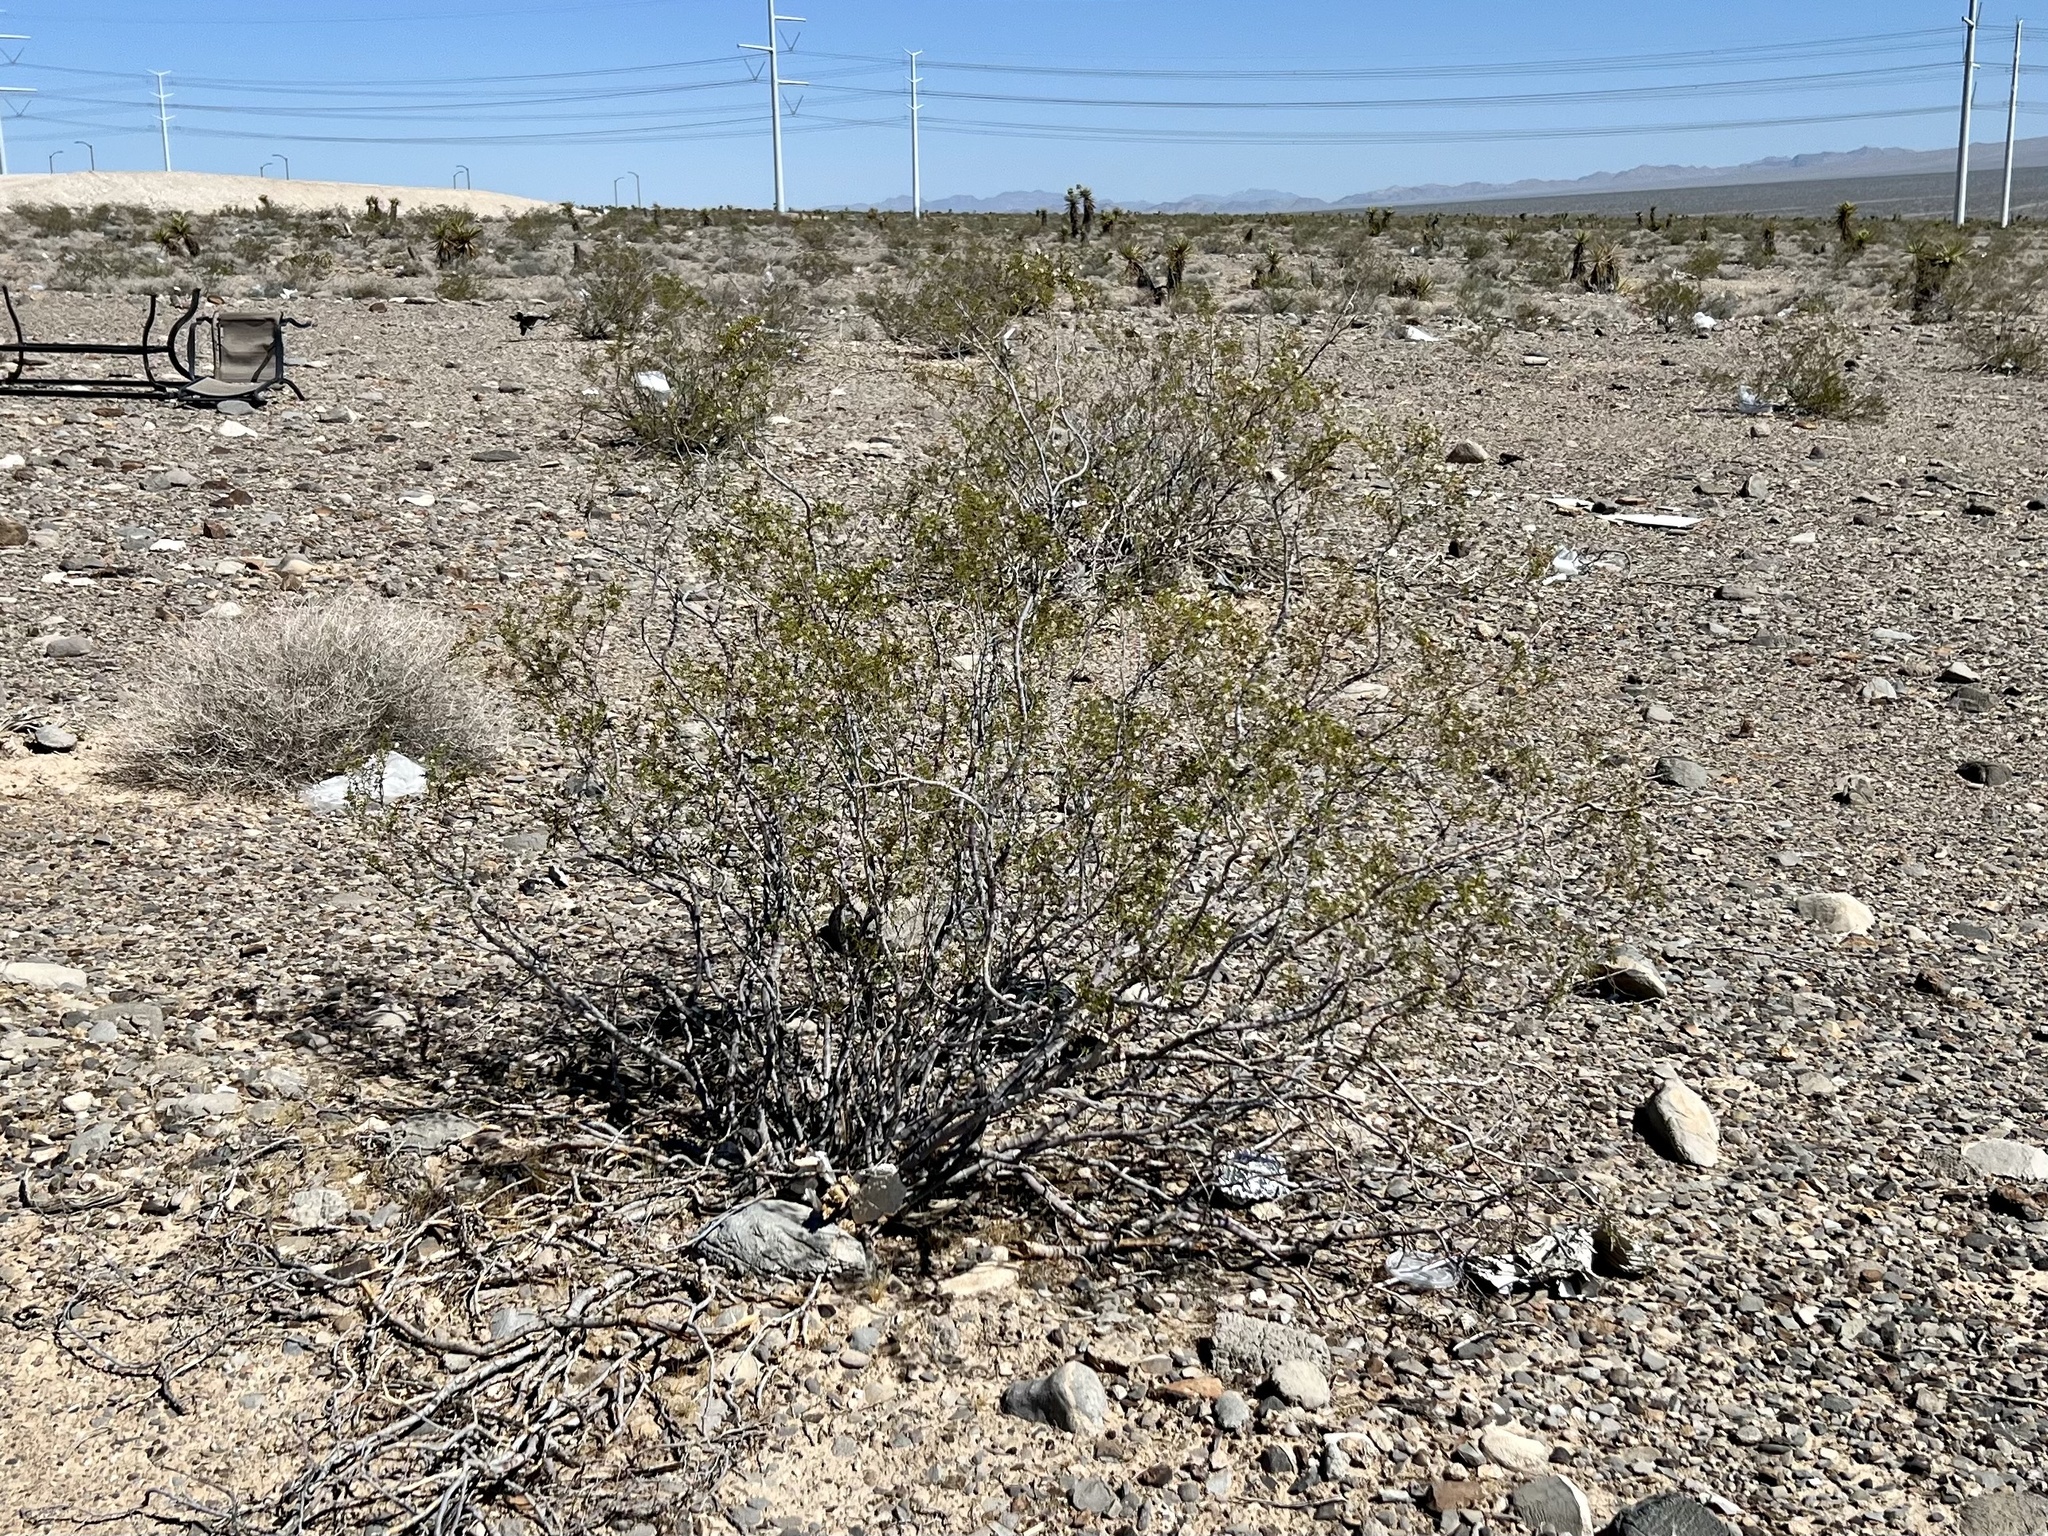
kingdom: Plantae
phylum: Tracheophyta
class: Magnoliopsida
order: Zygophyllales
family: Zygophyllaceae
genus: Larrea
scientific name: Larrea tridentata
